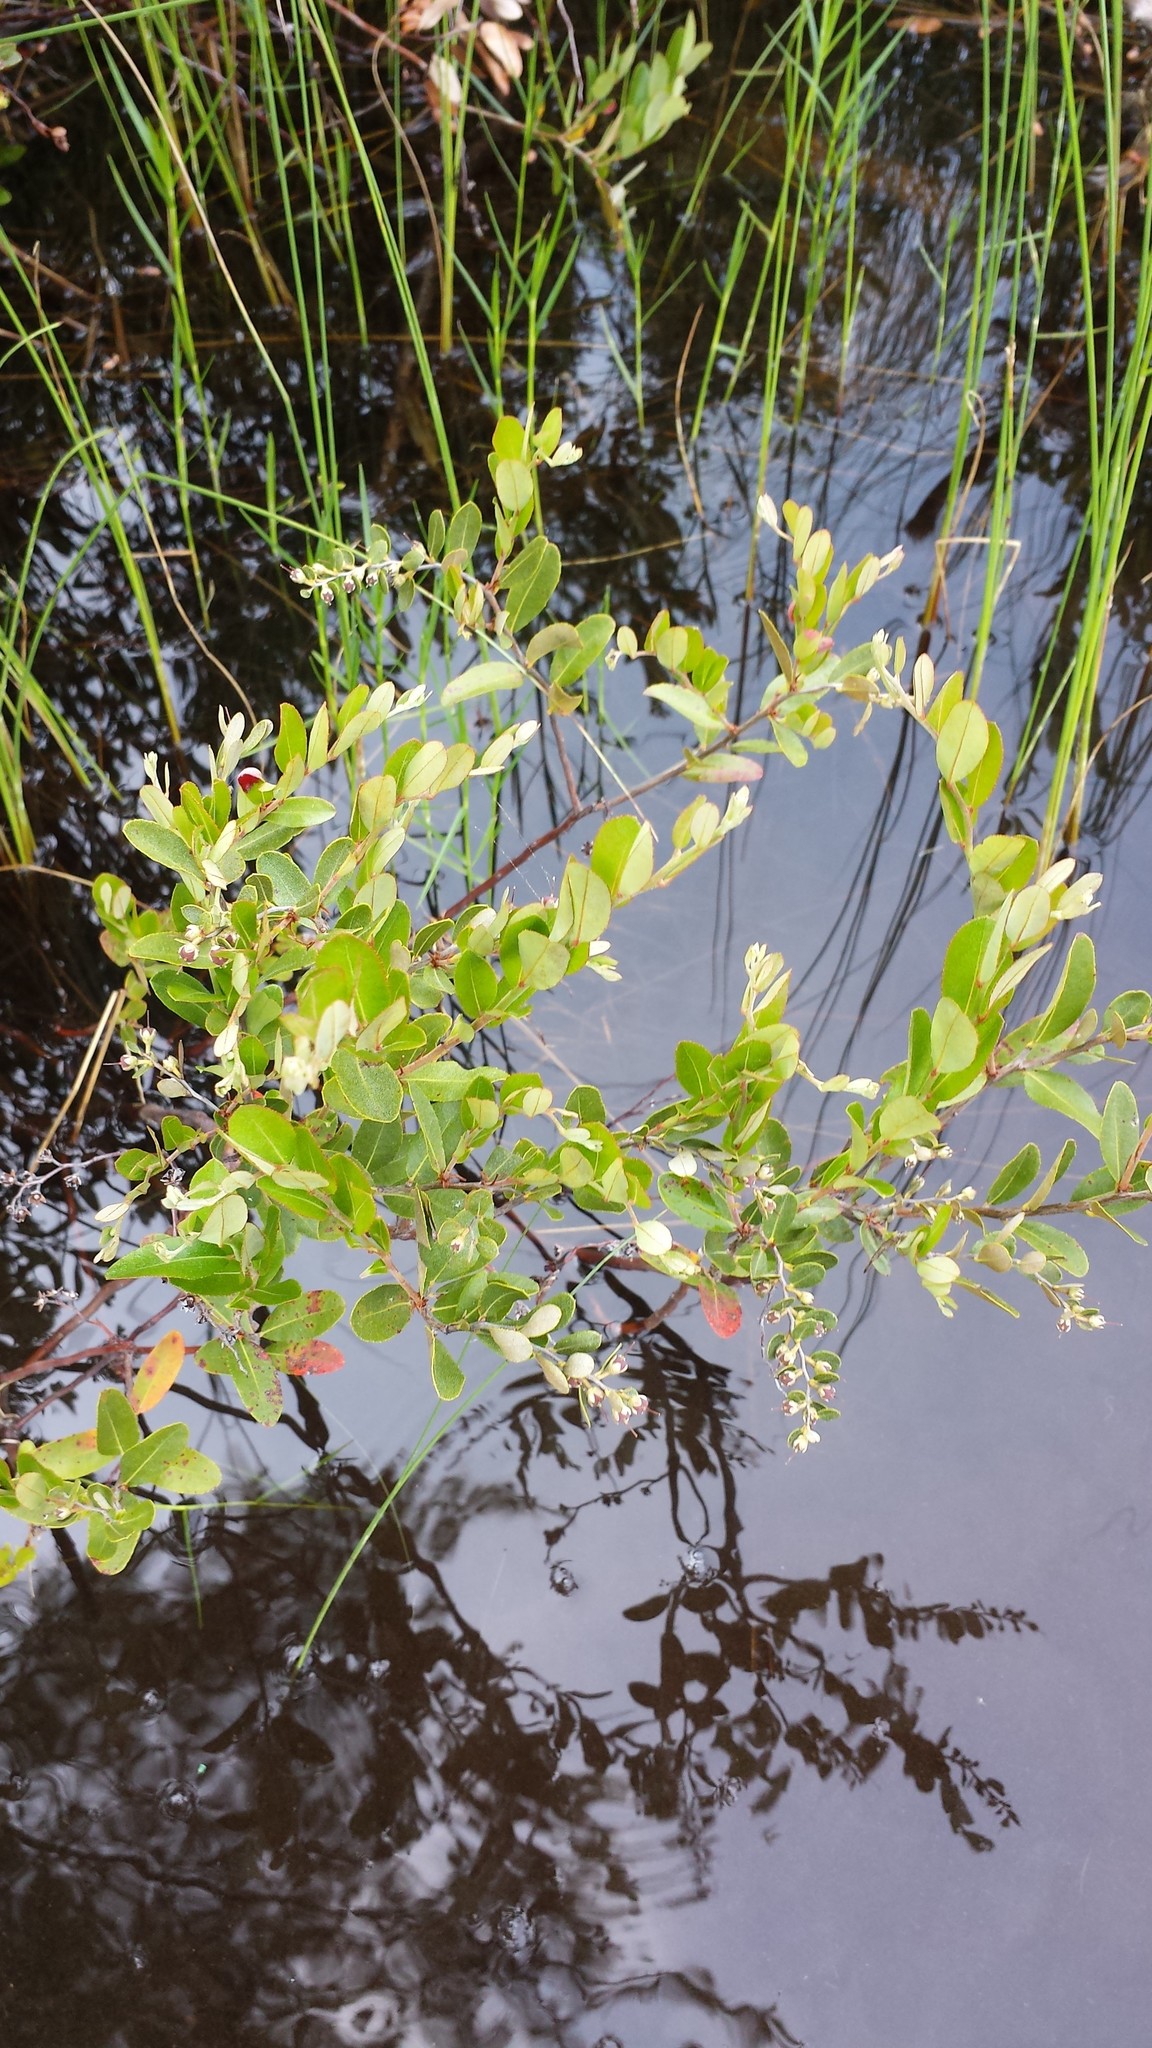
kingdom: Plantae
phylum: Tracheophyta
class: Magnoliopsida
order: Ericales
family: Ericaceae
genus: Chamaedaphne
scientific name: Chamaedaphne calyculata
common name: Leatherleaf
